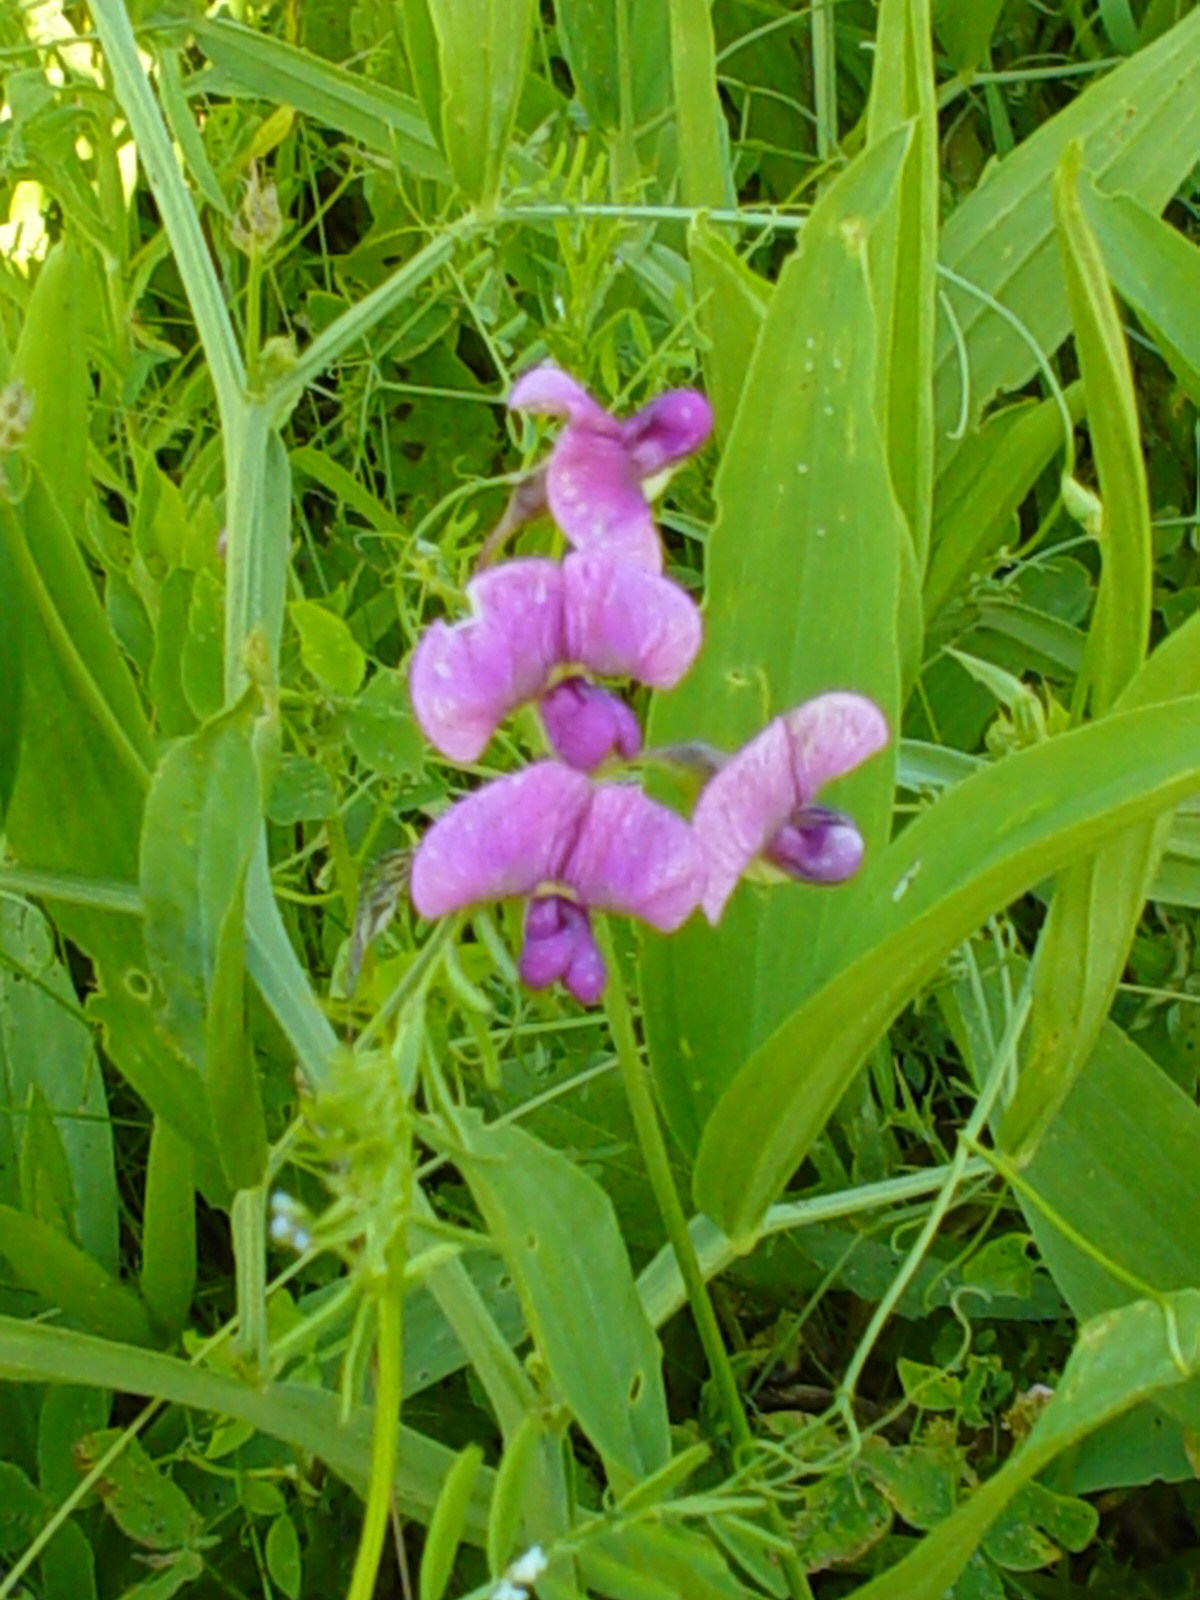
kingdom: Plantae
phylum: Tracheophyta
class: Magnoliopsida
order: Fabales
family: Fabaceae
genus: Lathyrus
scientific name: Lathyrus sylvestris
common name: Flat pea
